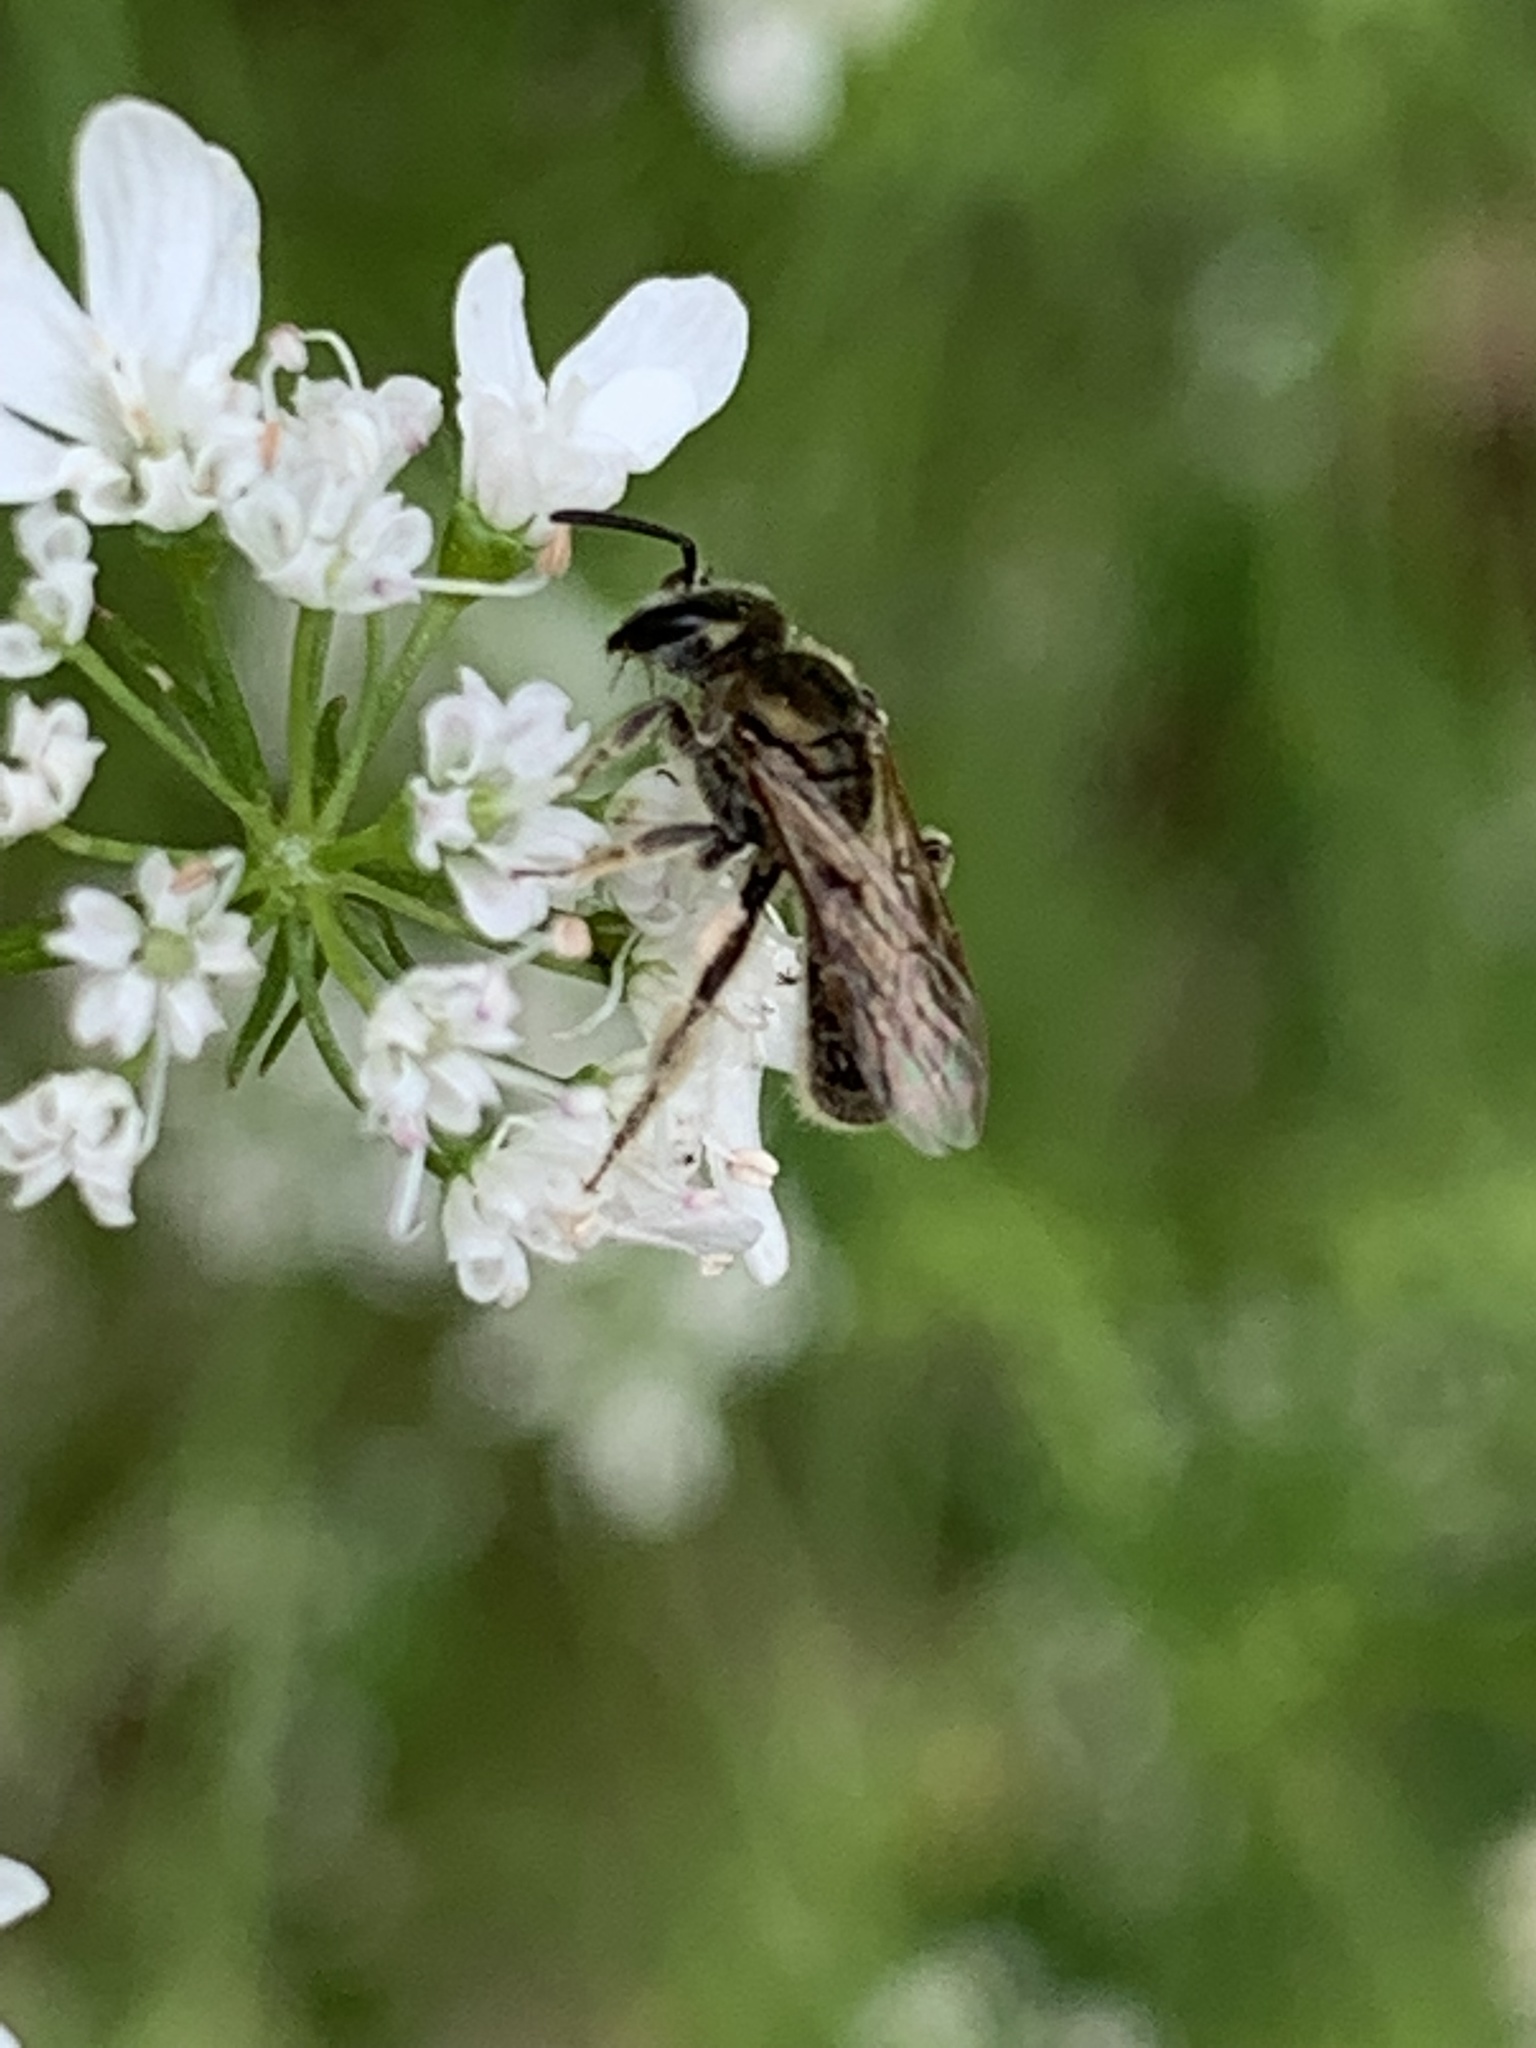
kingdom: Animalia
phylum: Arthropoda
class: Insecta
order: Hymenoptera
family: Halictidae
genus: Dialictus
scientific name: Dialictus
